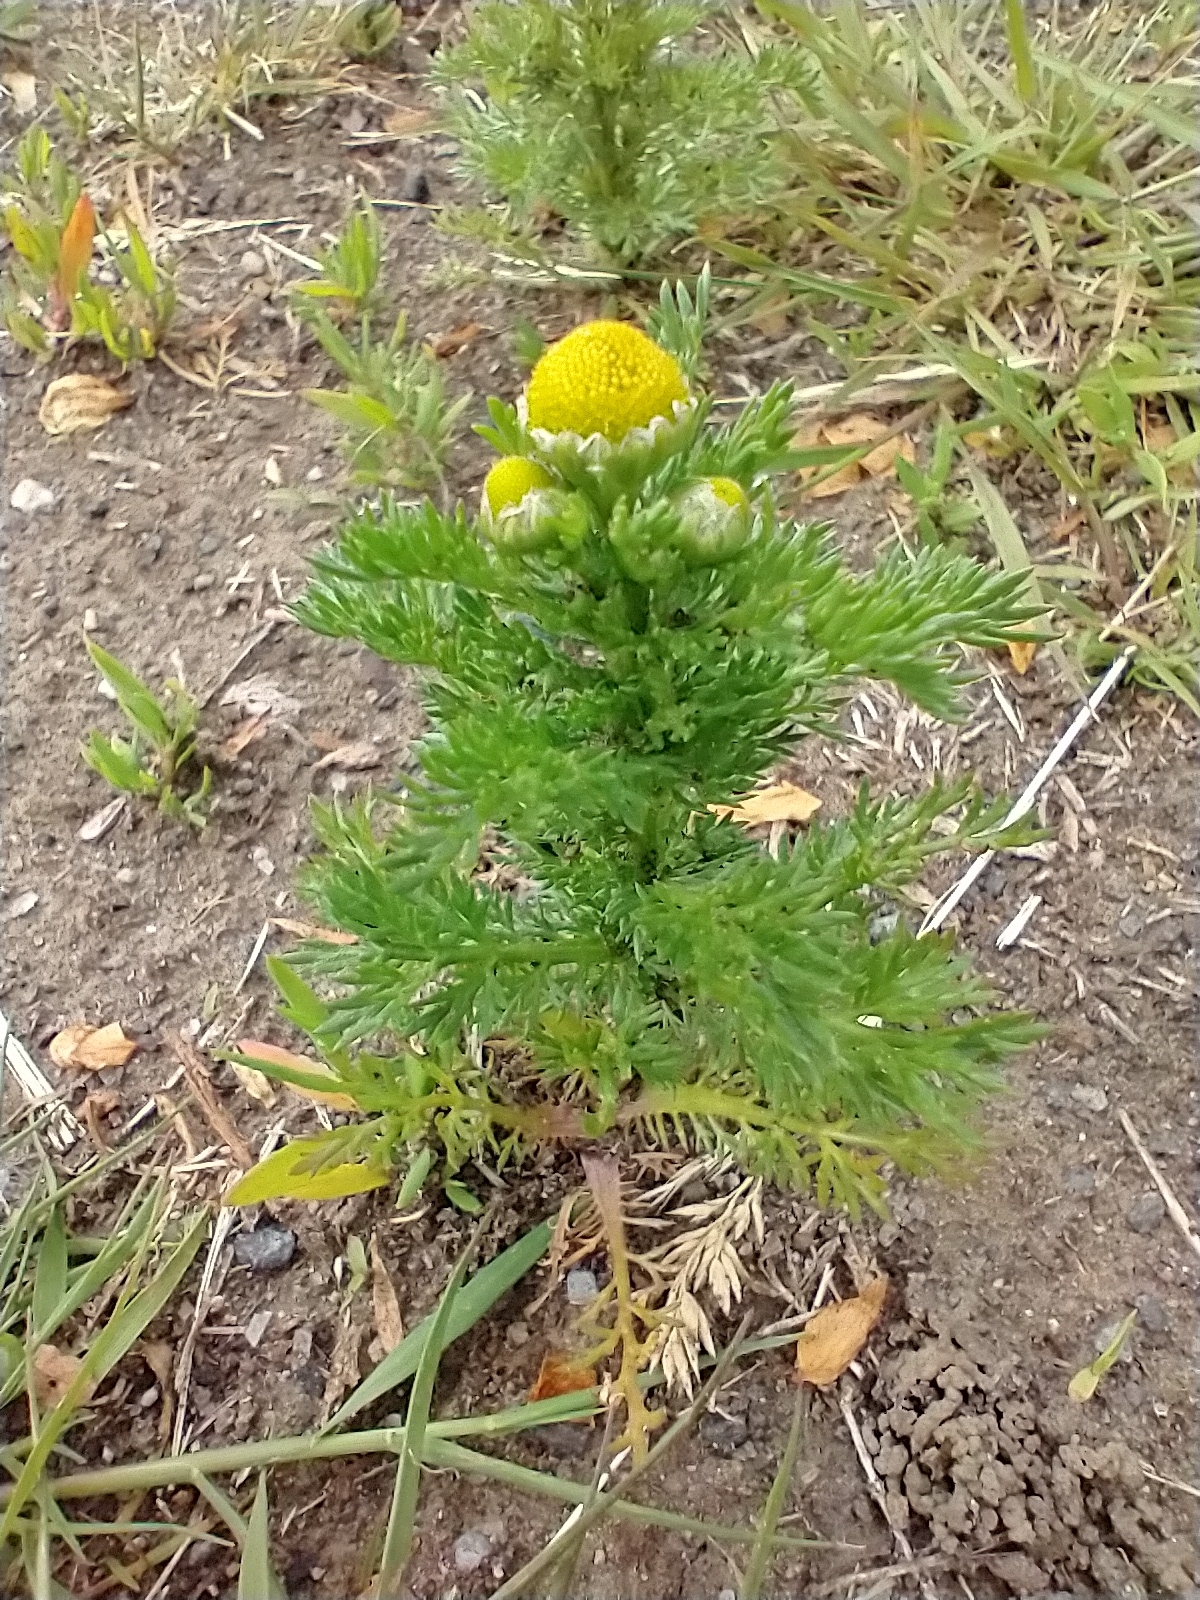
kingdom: Plantae
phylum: Tracheophyta
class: Magnoliopsida
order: Asterales
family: Asteraceae
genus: Matricaria
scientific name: Matricaria discoidea
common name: Disc mayweed
